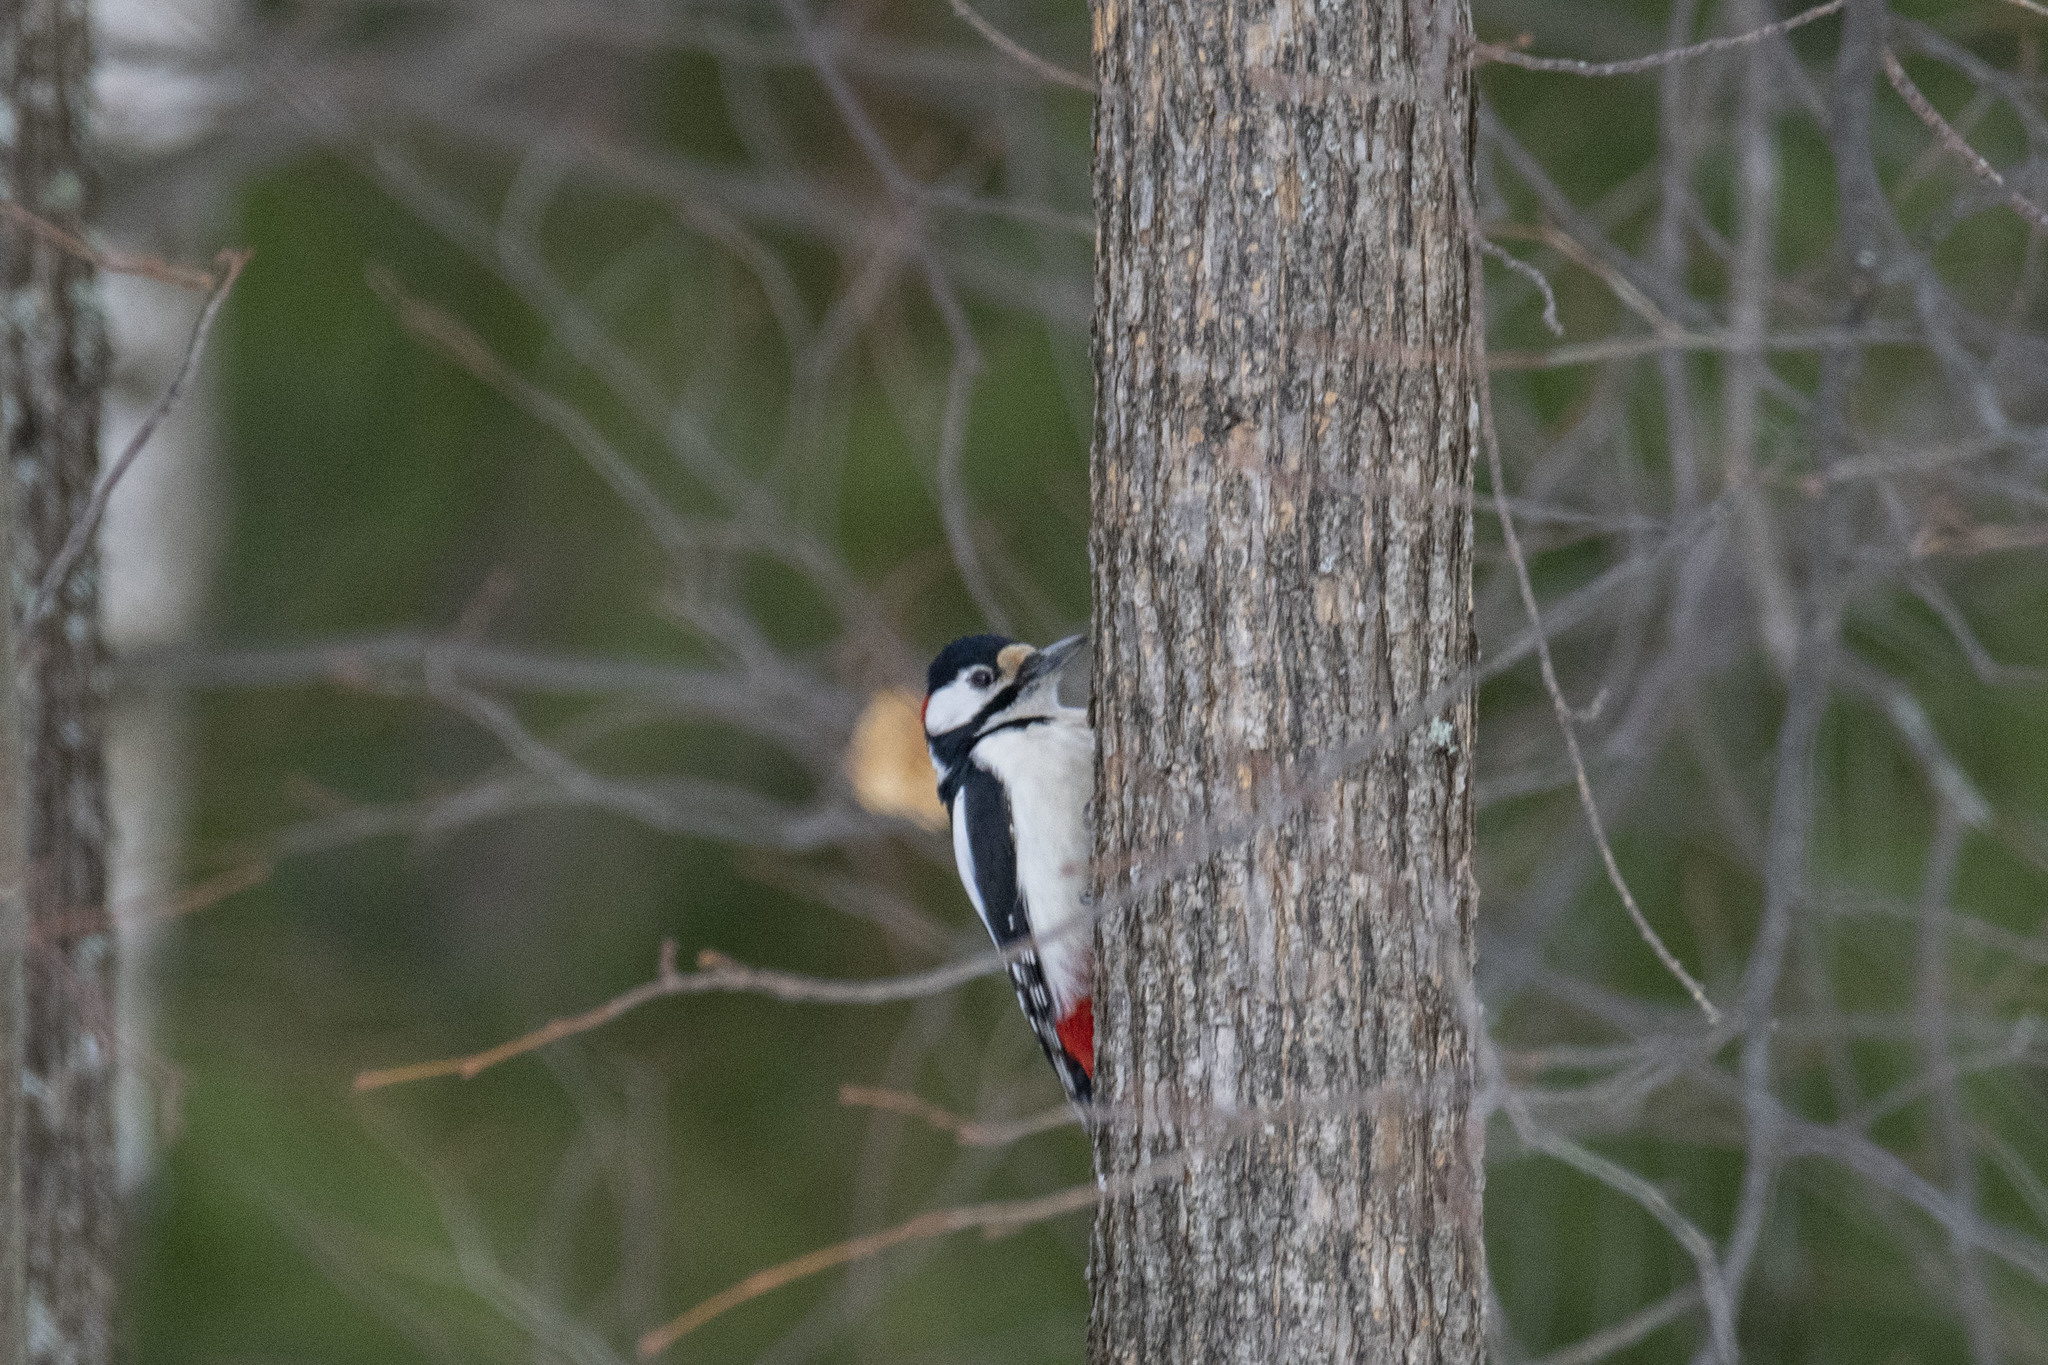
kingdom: Animalia
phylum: Chordata
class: Aves
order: Piciformes
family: Picidae
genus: Dendrocopos
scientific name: Dendrocopos major
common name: Great spotted woodpecker
